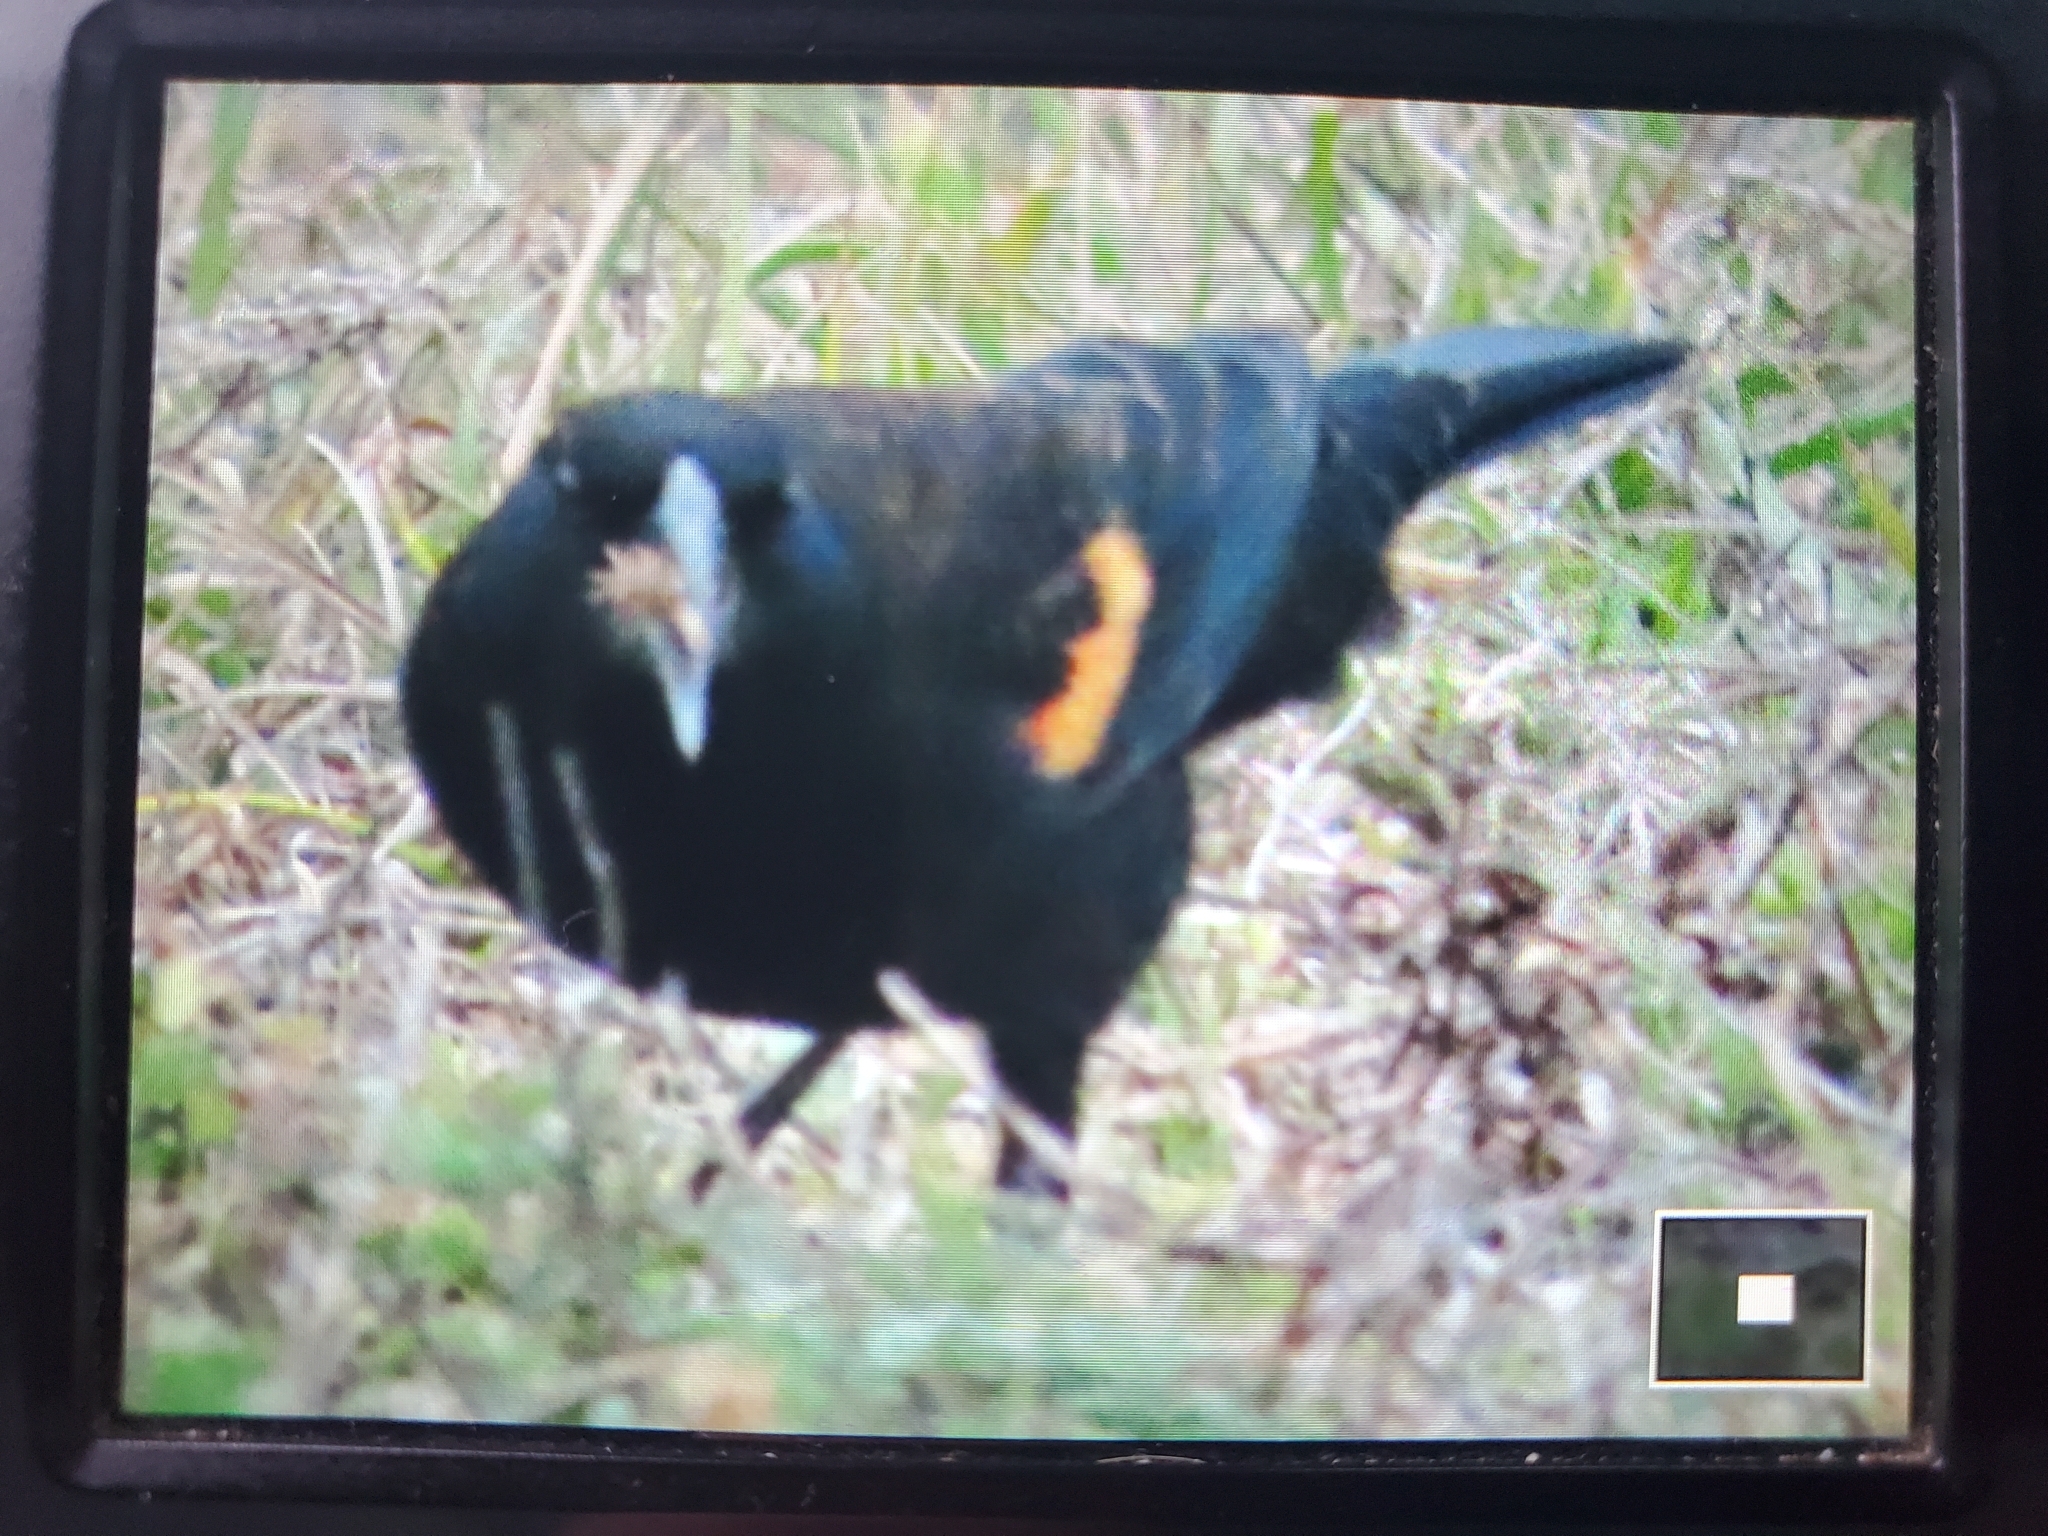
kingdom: Animalia
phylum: Chordata
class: Aves
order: Passeriformes
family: Icteridae
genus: Agelaius
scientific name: Agelaius phoeniceus
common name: Red-winged blackbird
